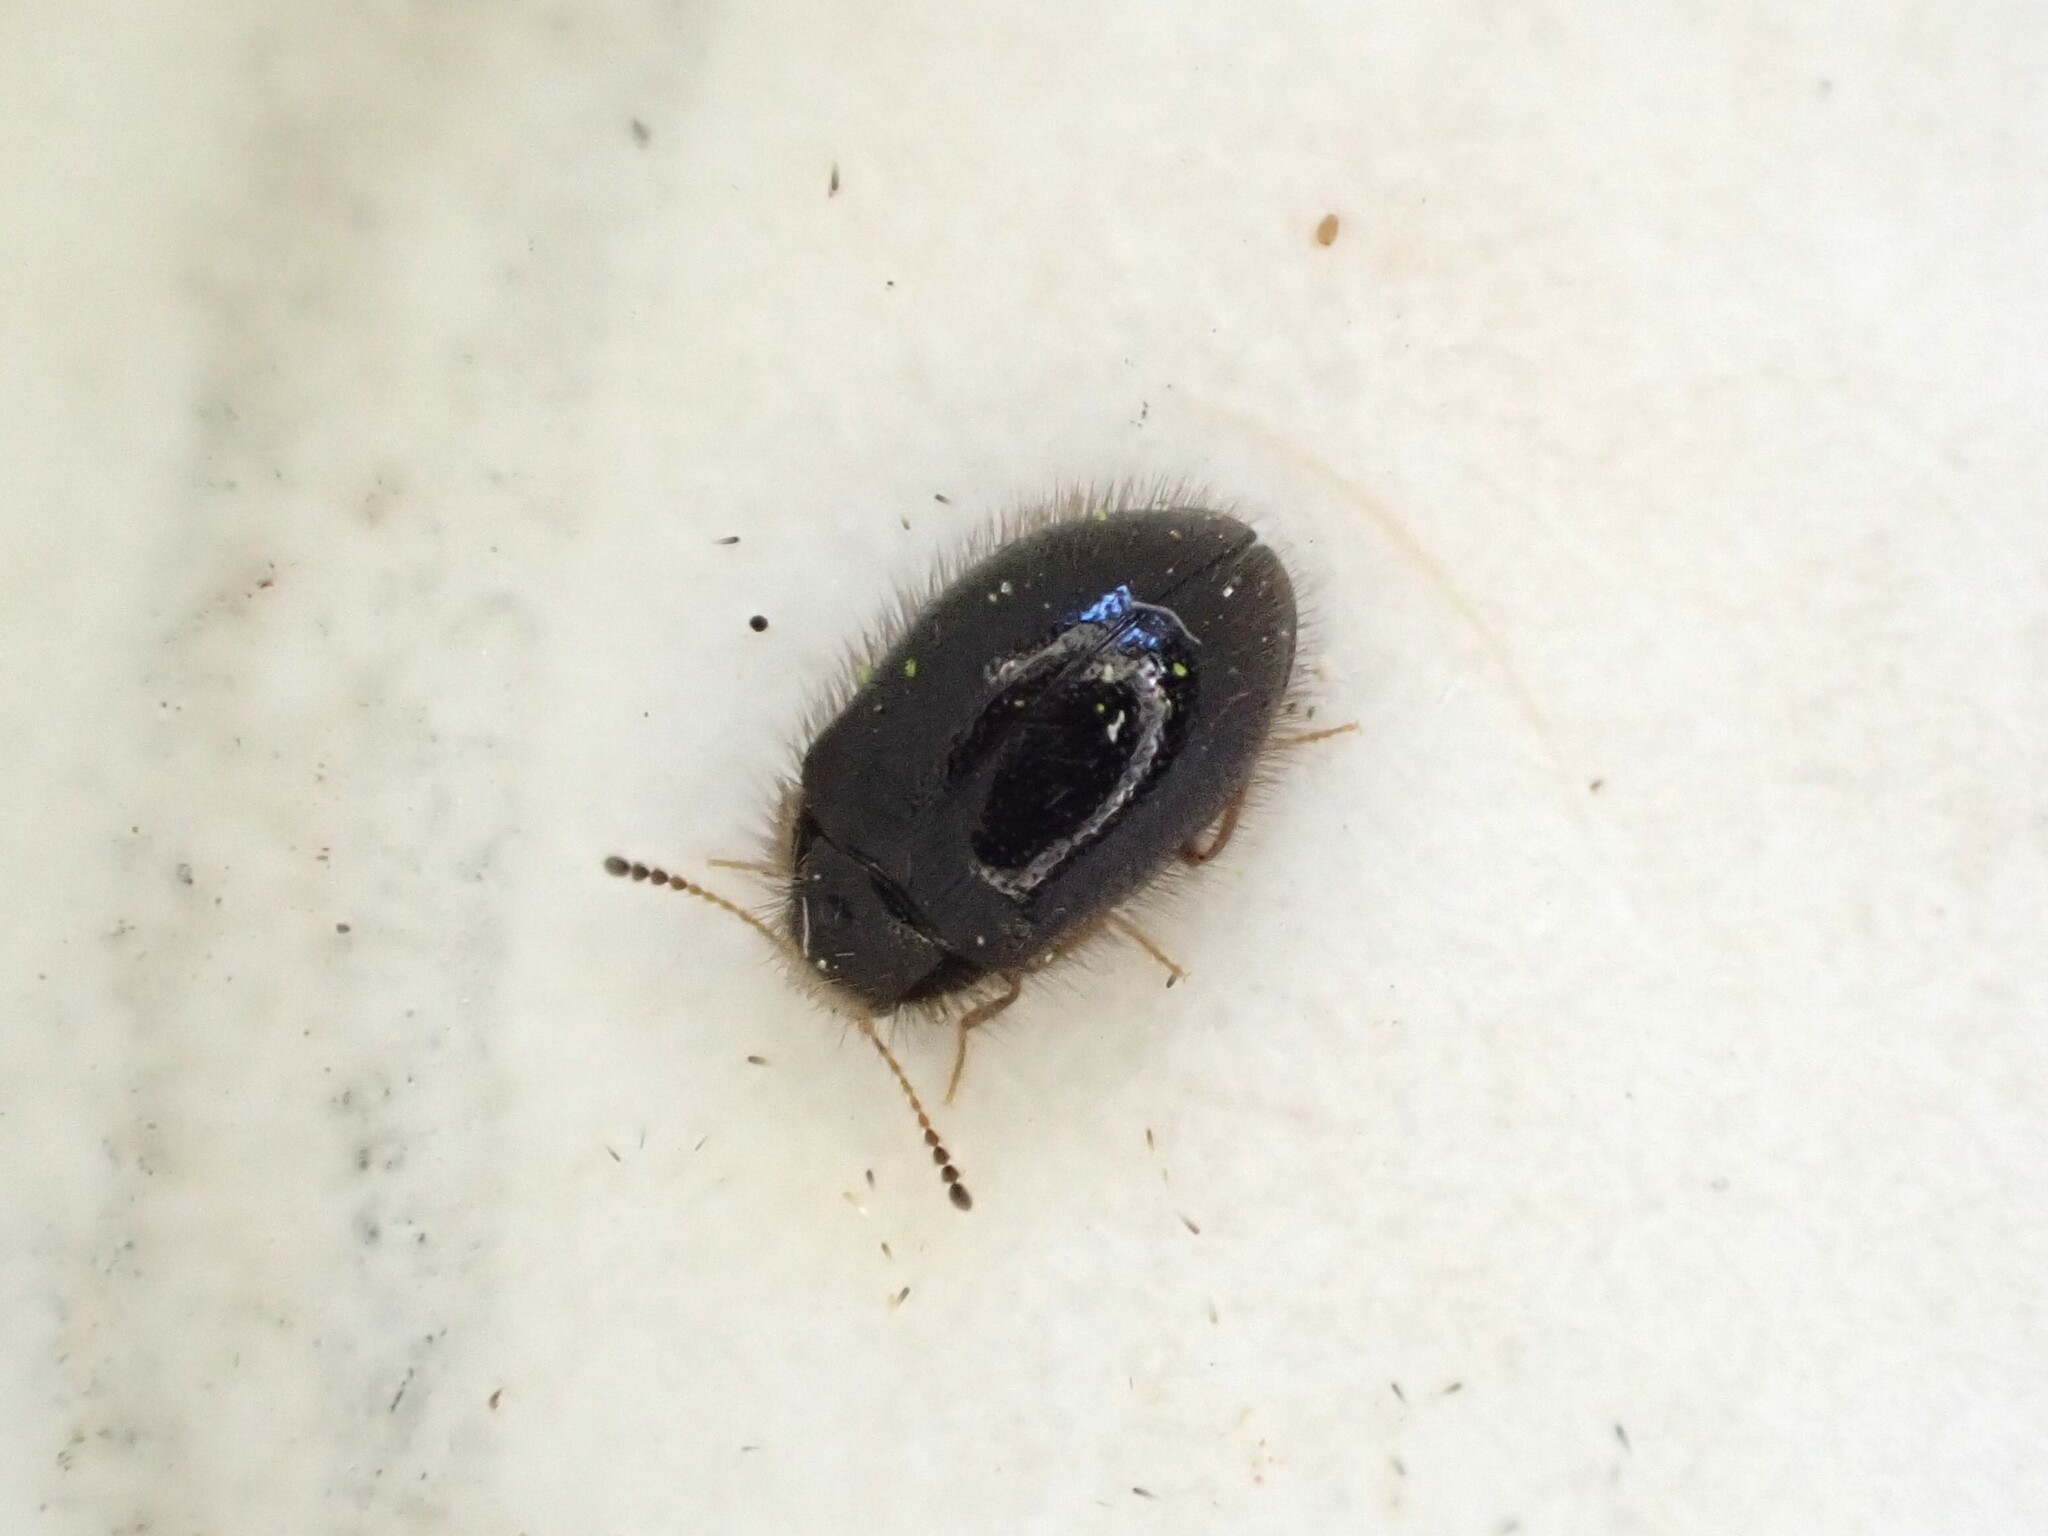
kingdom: Animalia
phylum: Arthropoda
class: Insecta
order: Coleoptera
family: Dermestidae
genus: Hexanodes
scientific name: Hexanodes
